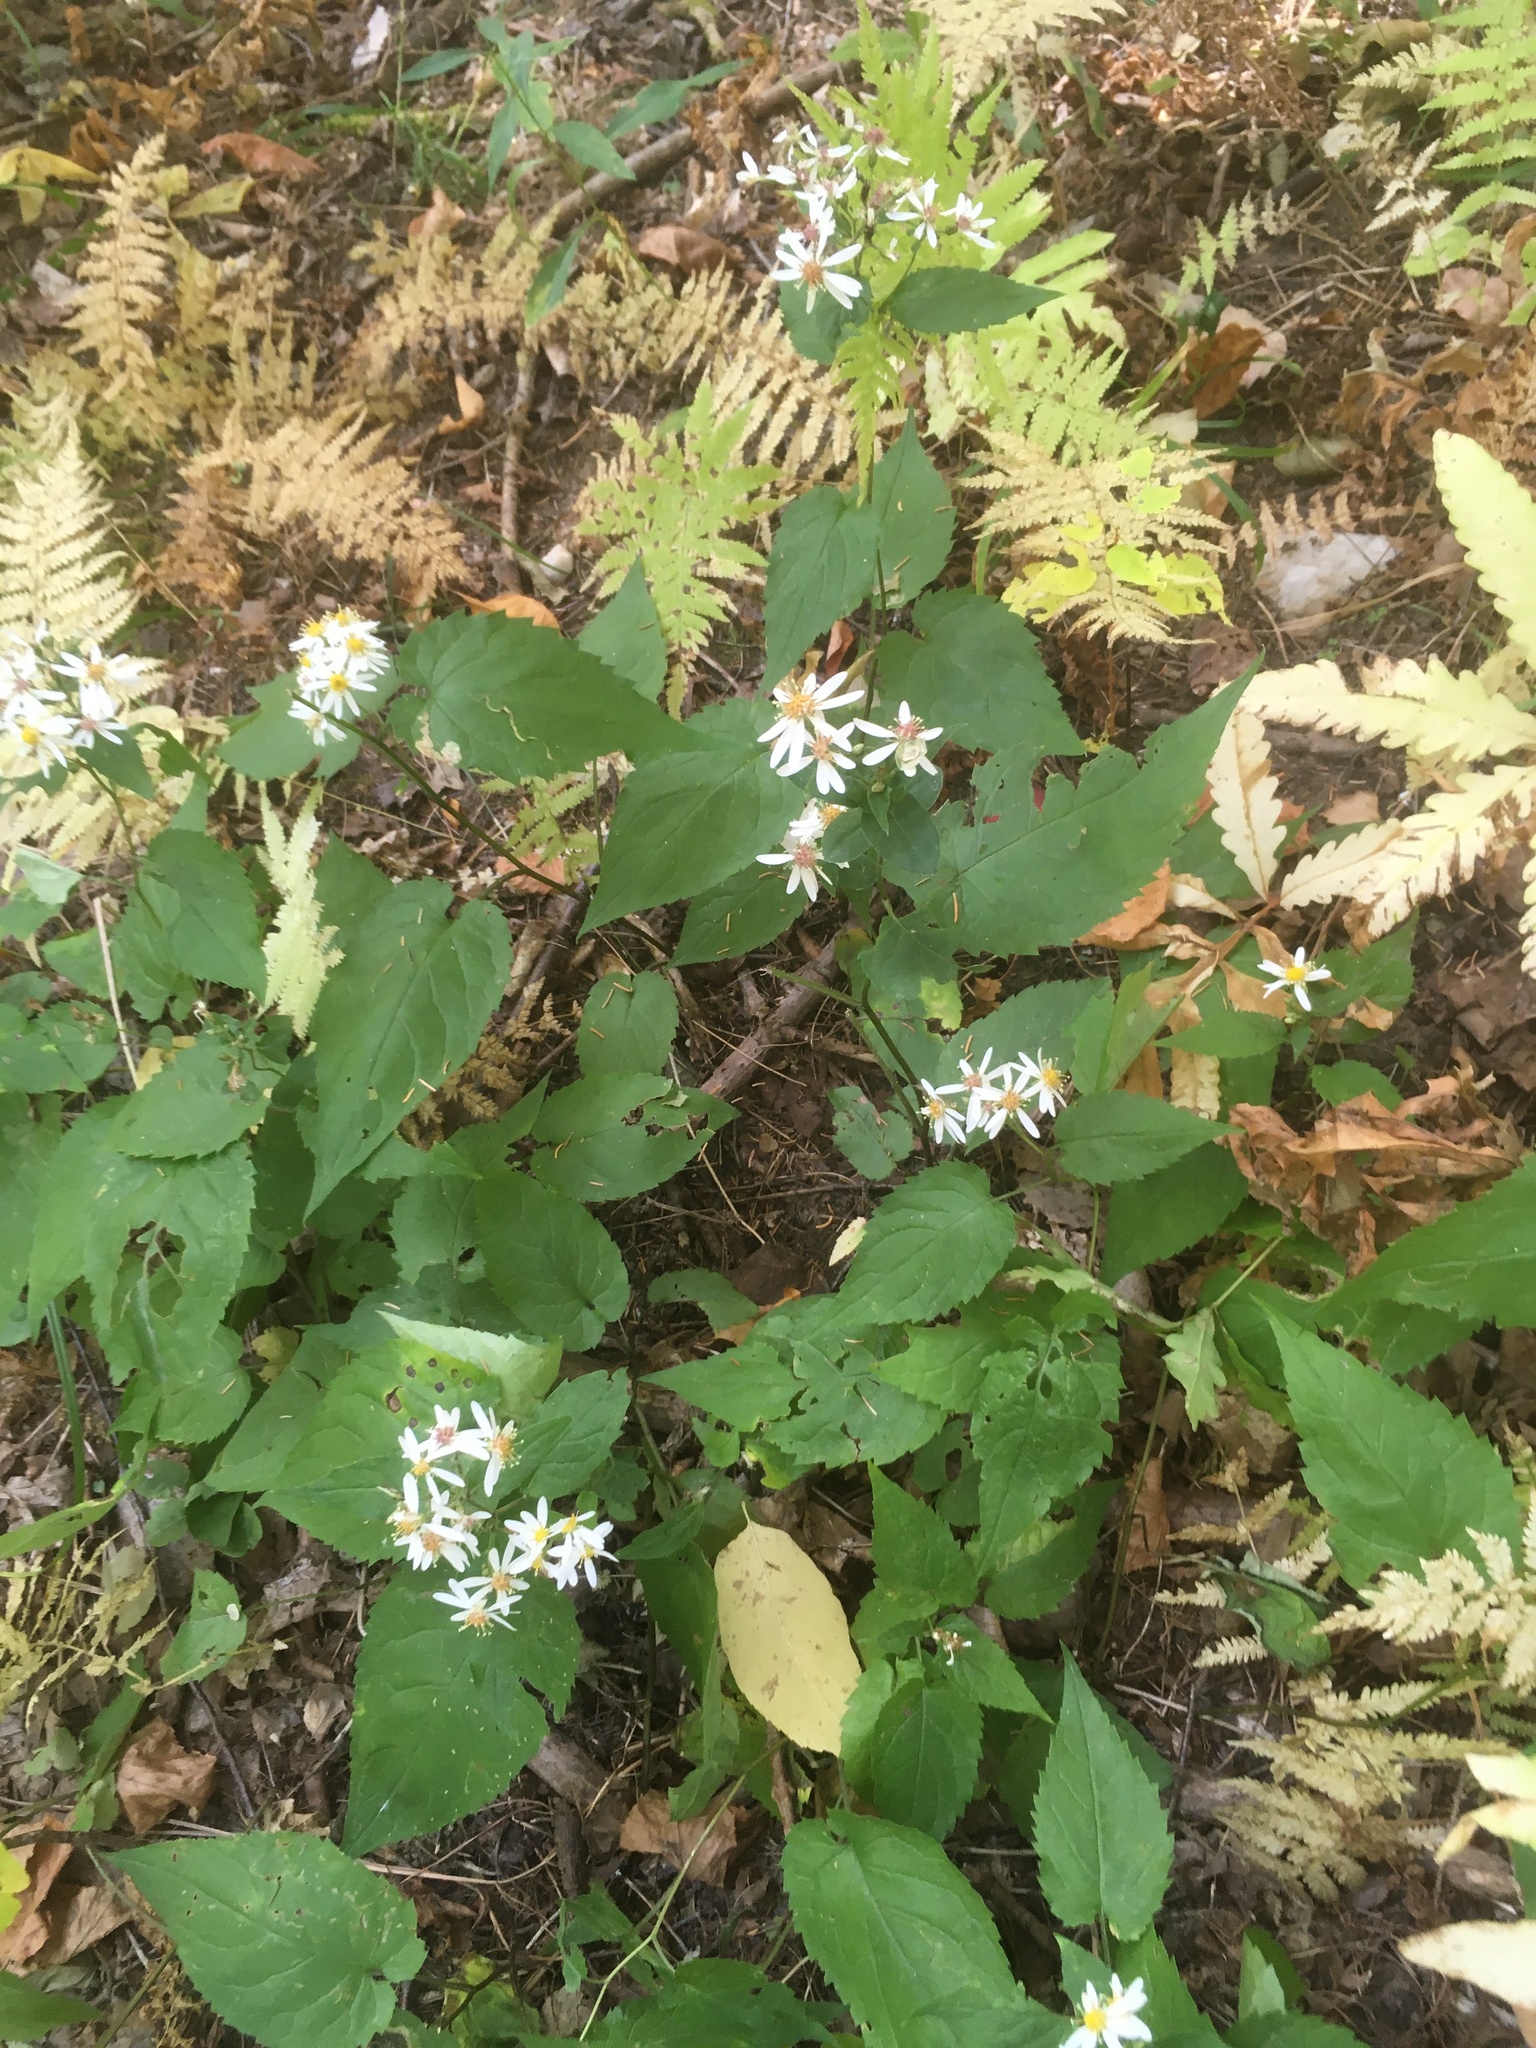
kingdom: Plantae
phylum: Tracheophyta
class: Magnoliopsida
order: Asterales
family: Asteraceae
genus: Eurybia
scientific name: Eurybia divaricata
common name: White wood aster
